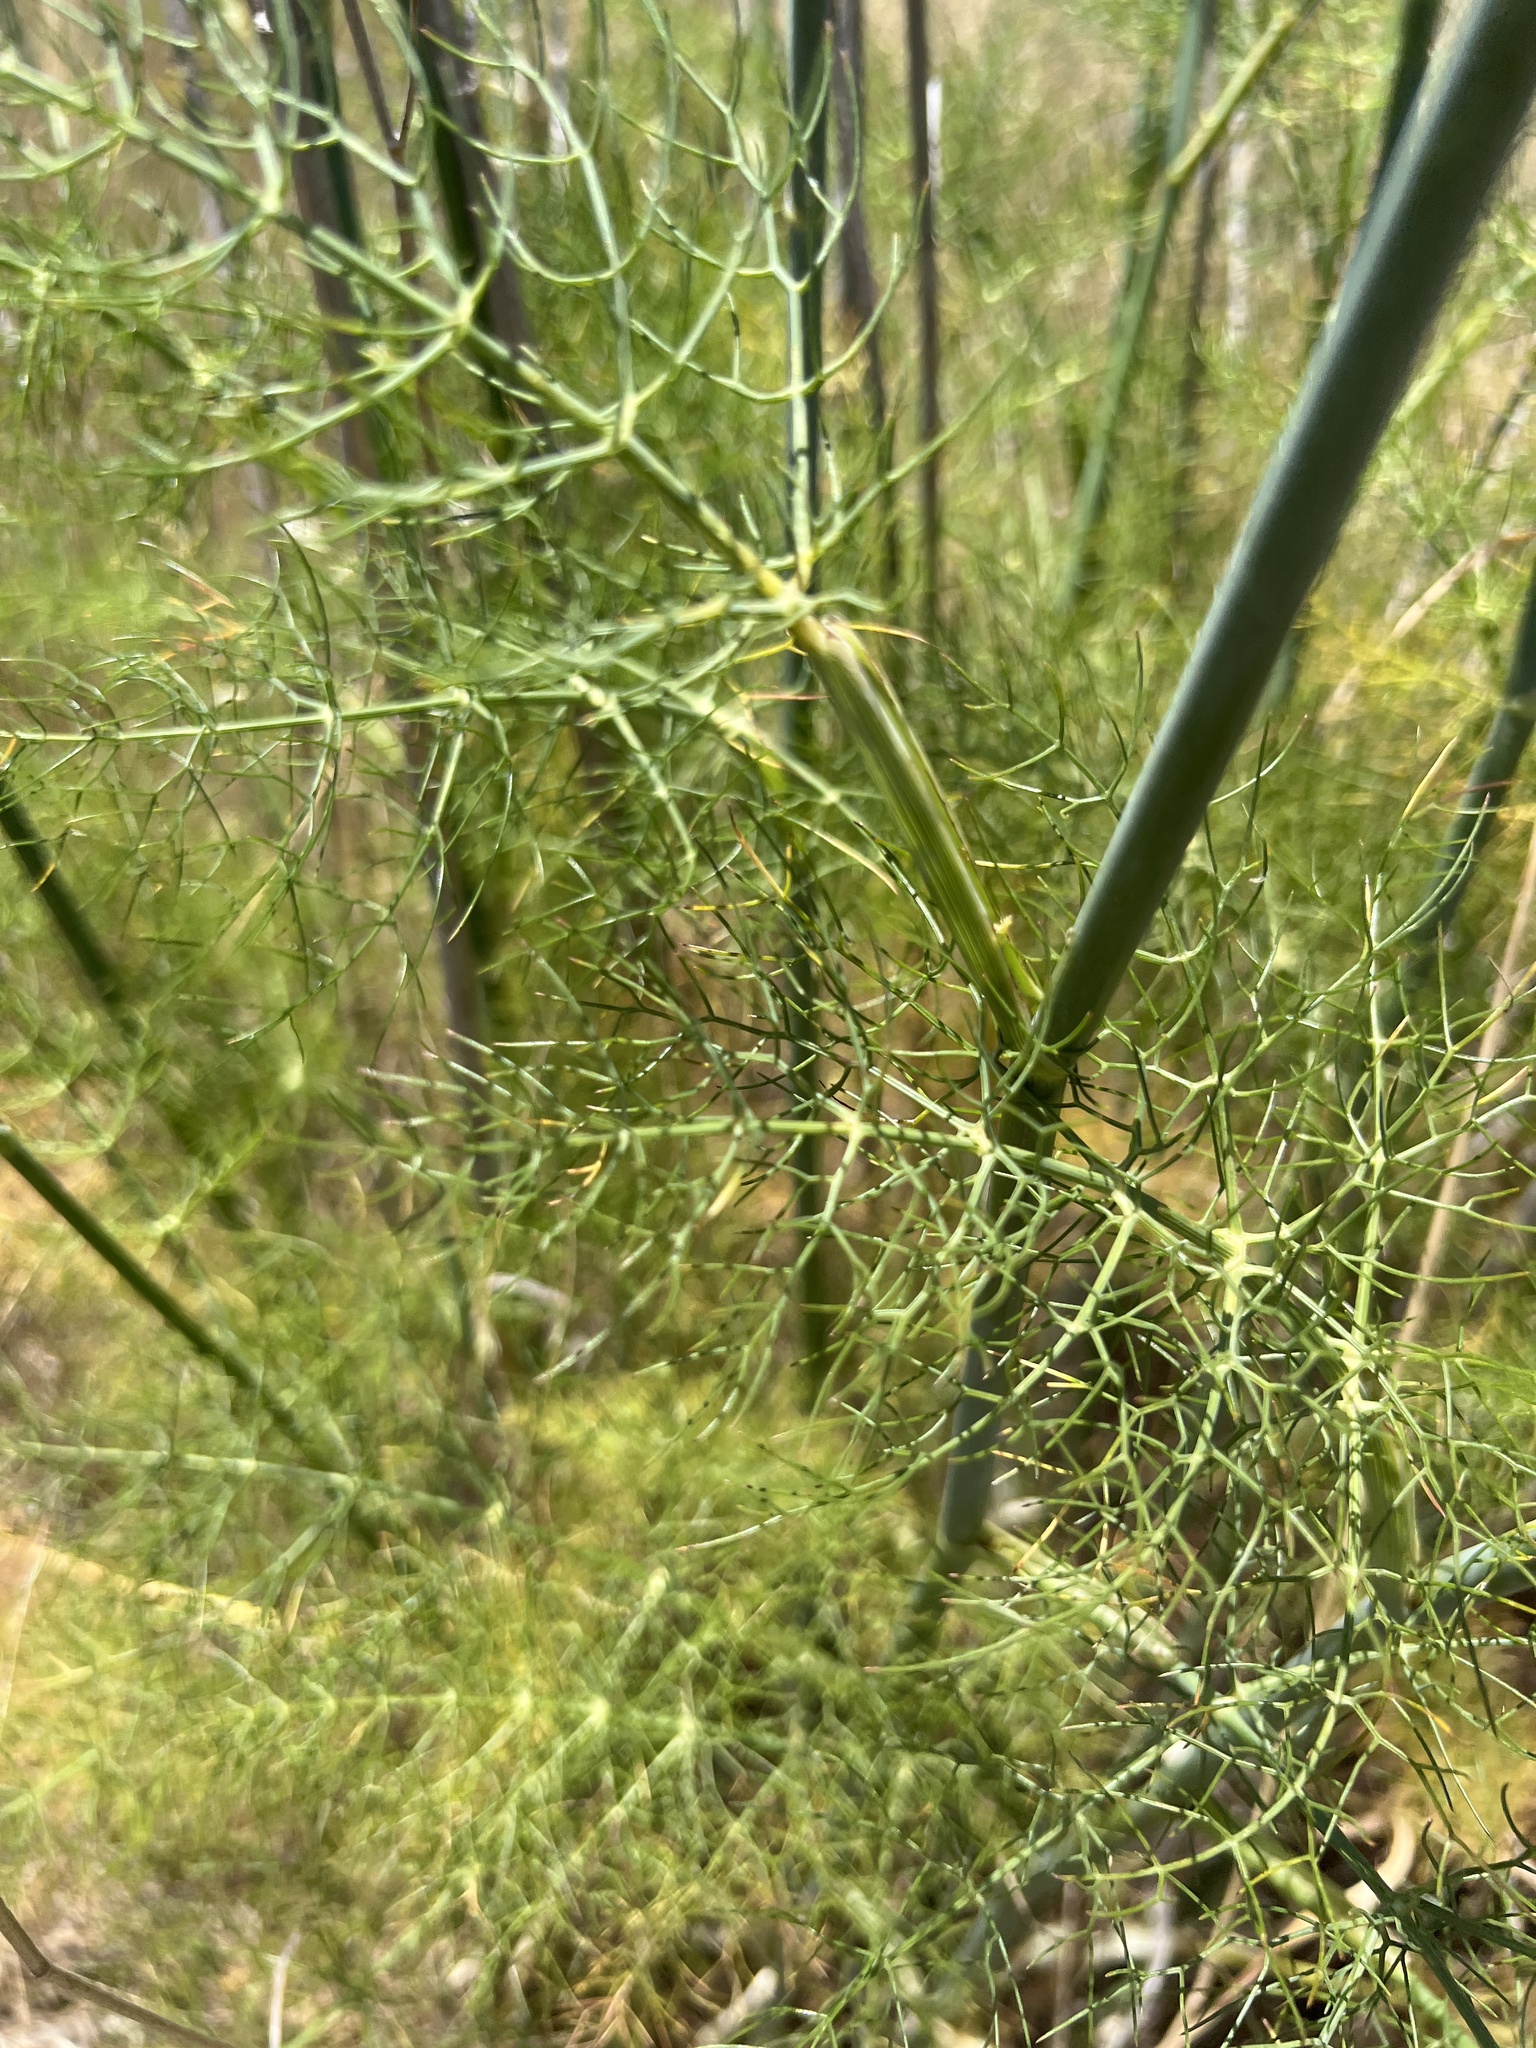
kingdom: Plantae
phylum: Tracheophyta
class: Magnoliopsida
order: Apiales
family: Apiaceae
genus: Foeniculum
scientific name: Foeniculum vulgare
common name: Fennel
